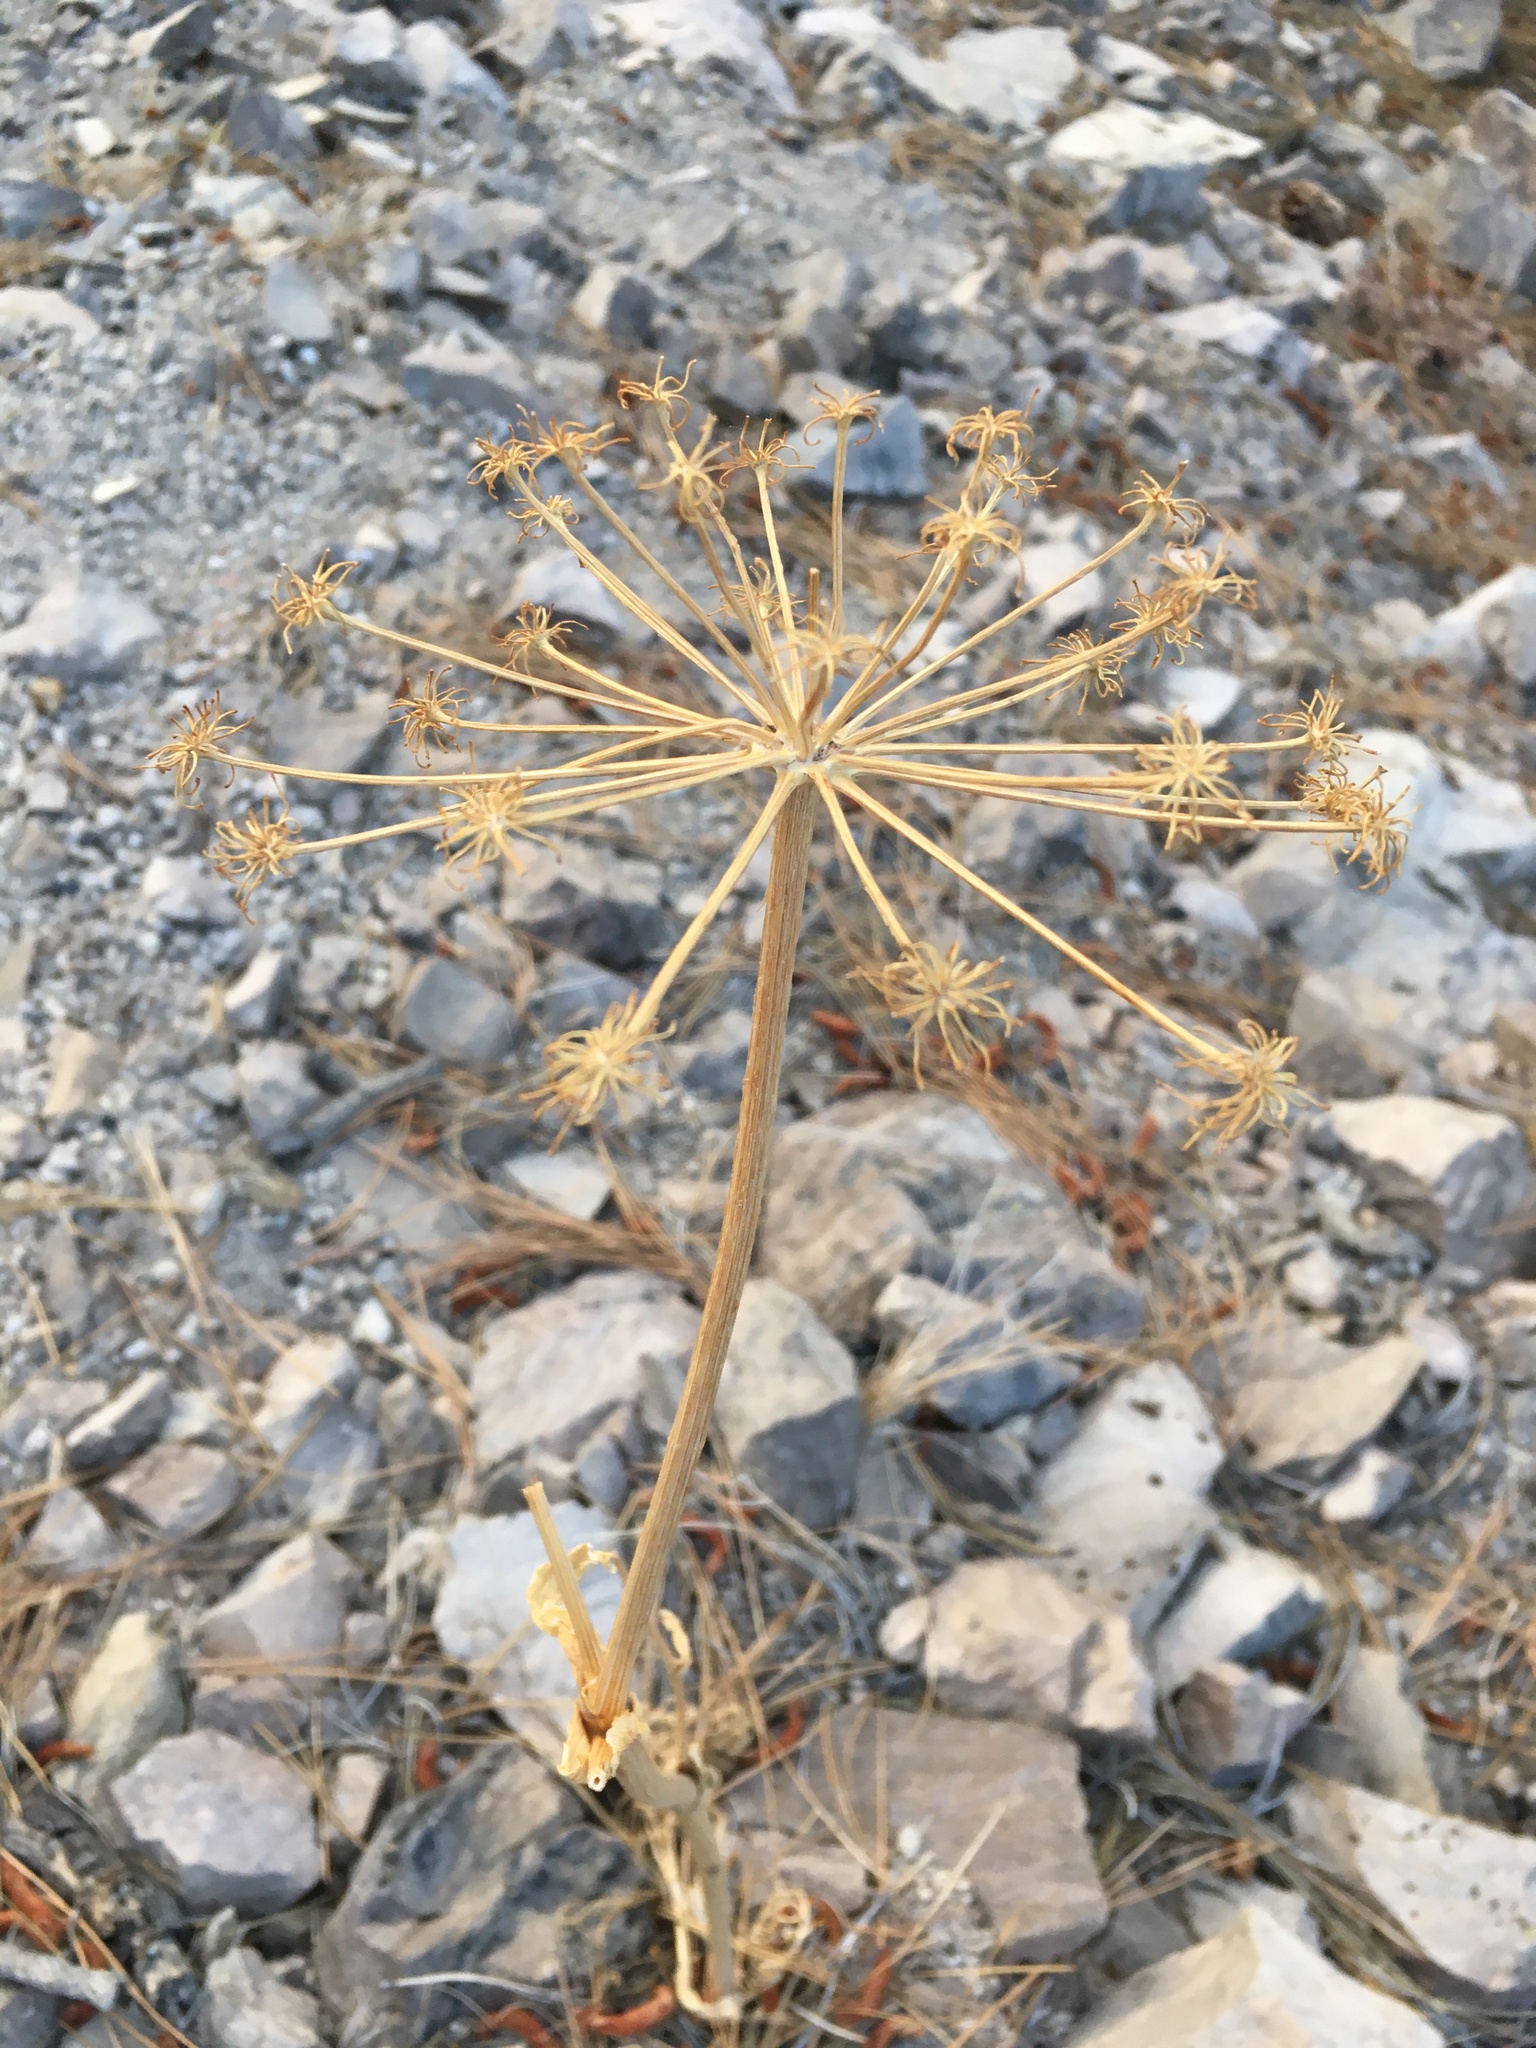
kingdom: Plantae
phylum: Tracheophyta
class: Magnoliopsida
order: Apiales
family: Apiaceae
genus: Angelica
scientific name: Angelica lineariloba
